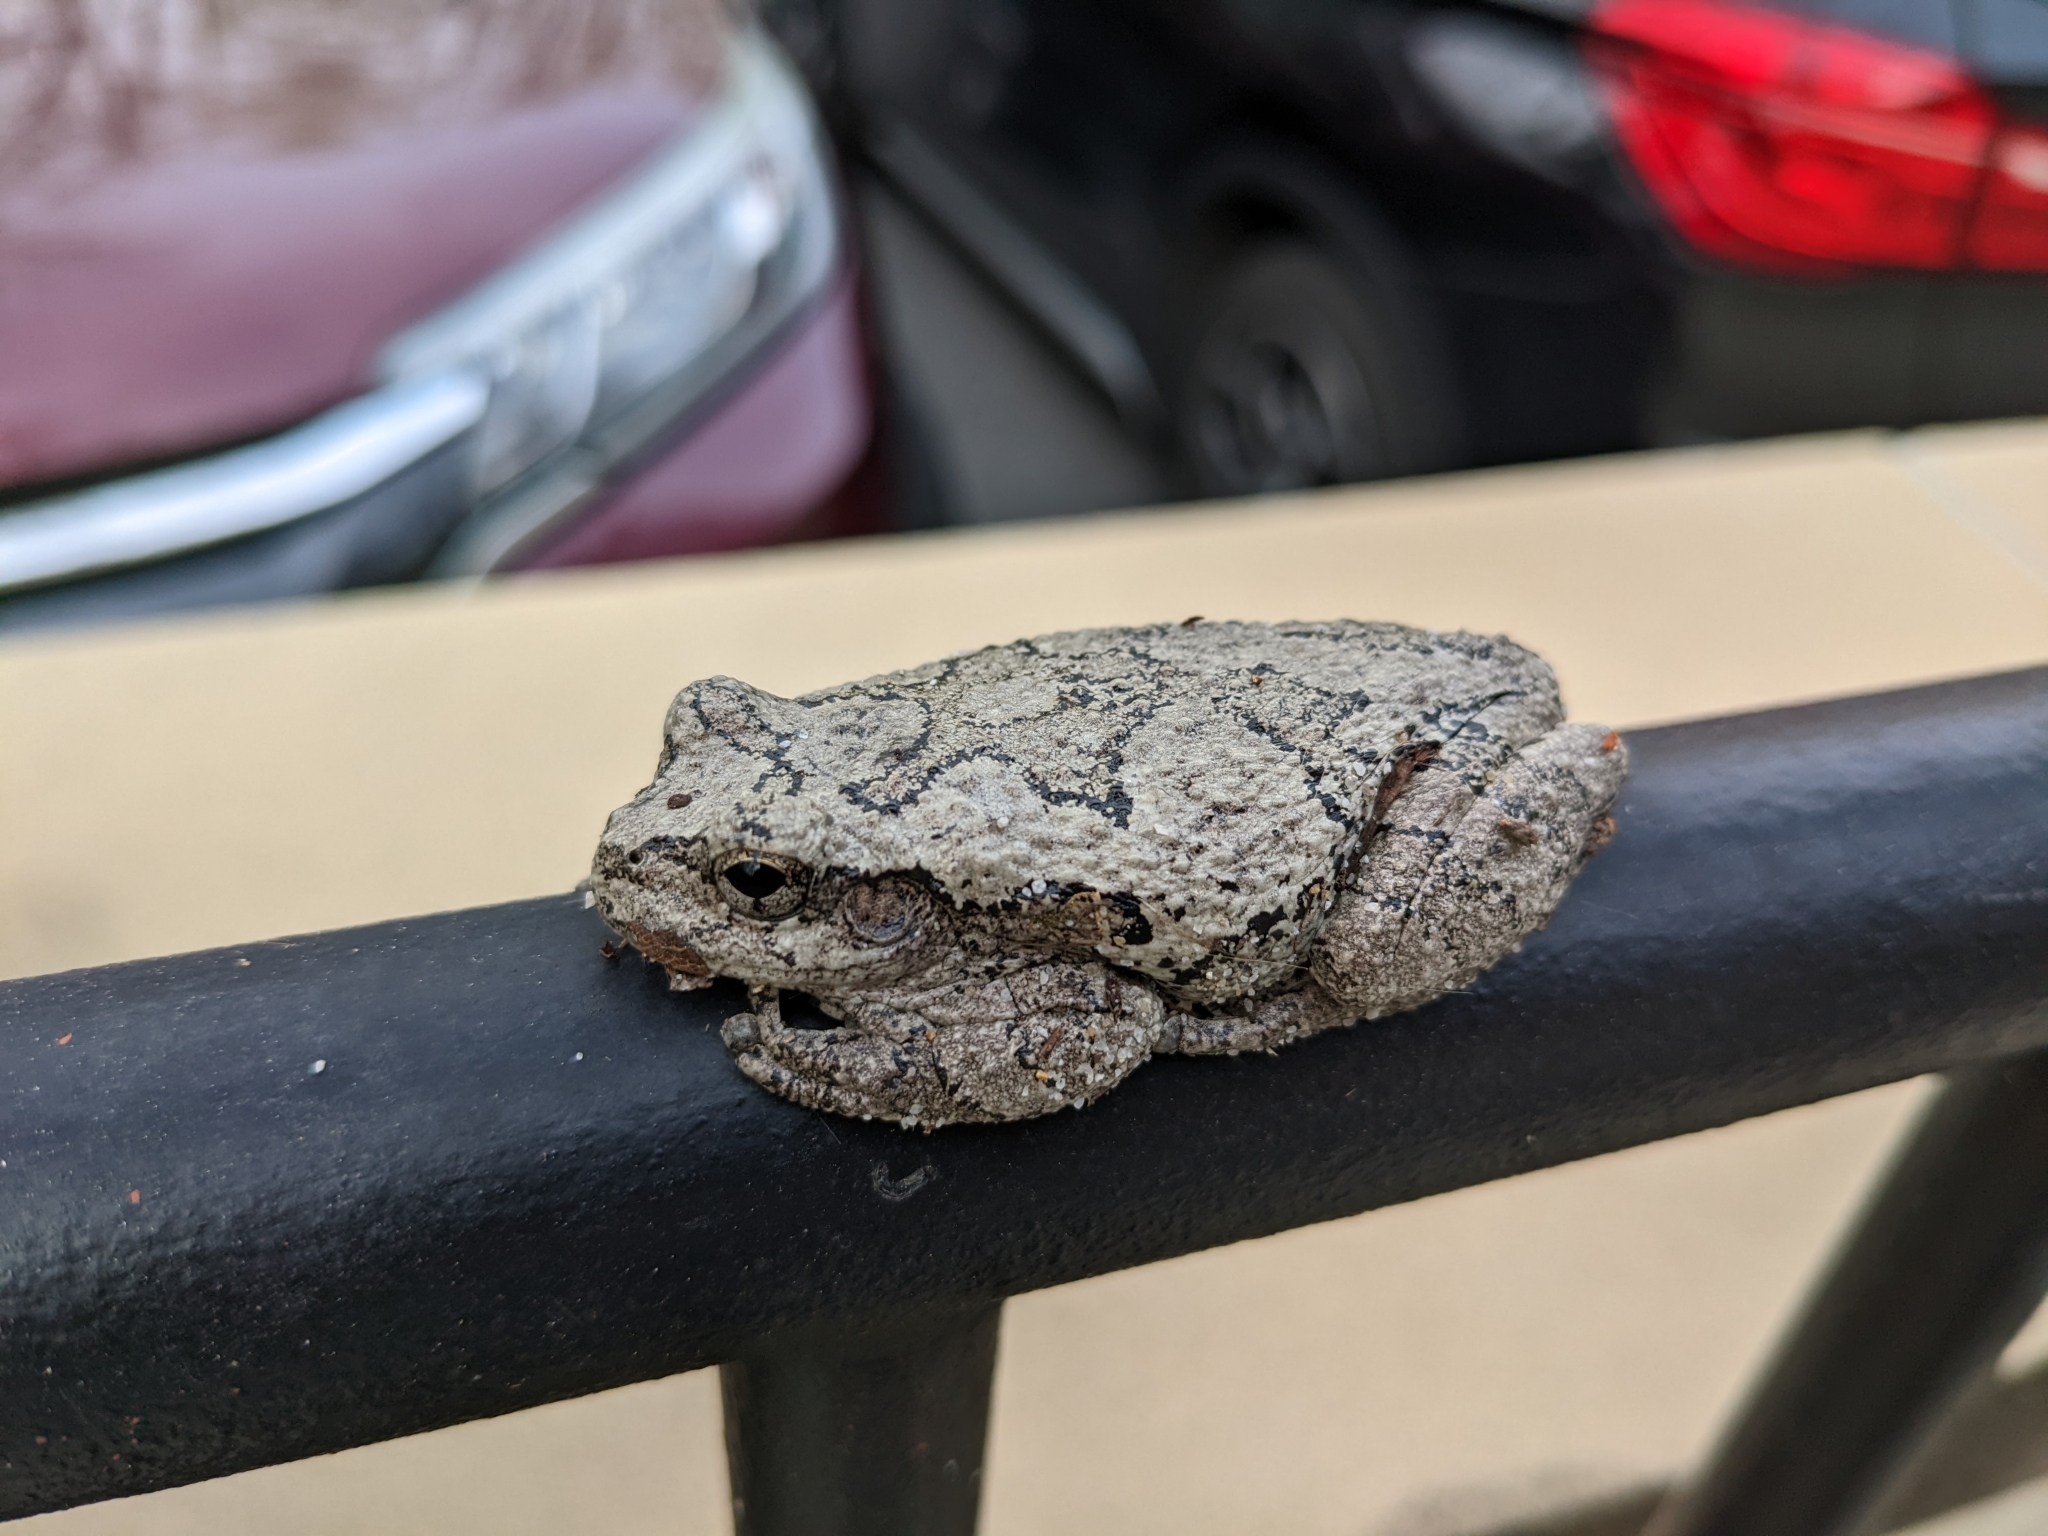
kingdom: Animalia
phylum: Chordata
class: Amphibia
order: Anura
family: Hylidae
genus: Hyla
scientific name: Hyla
